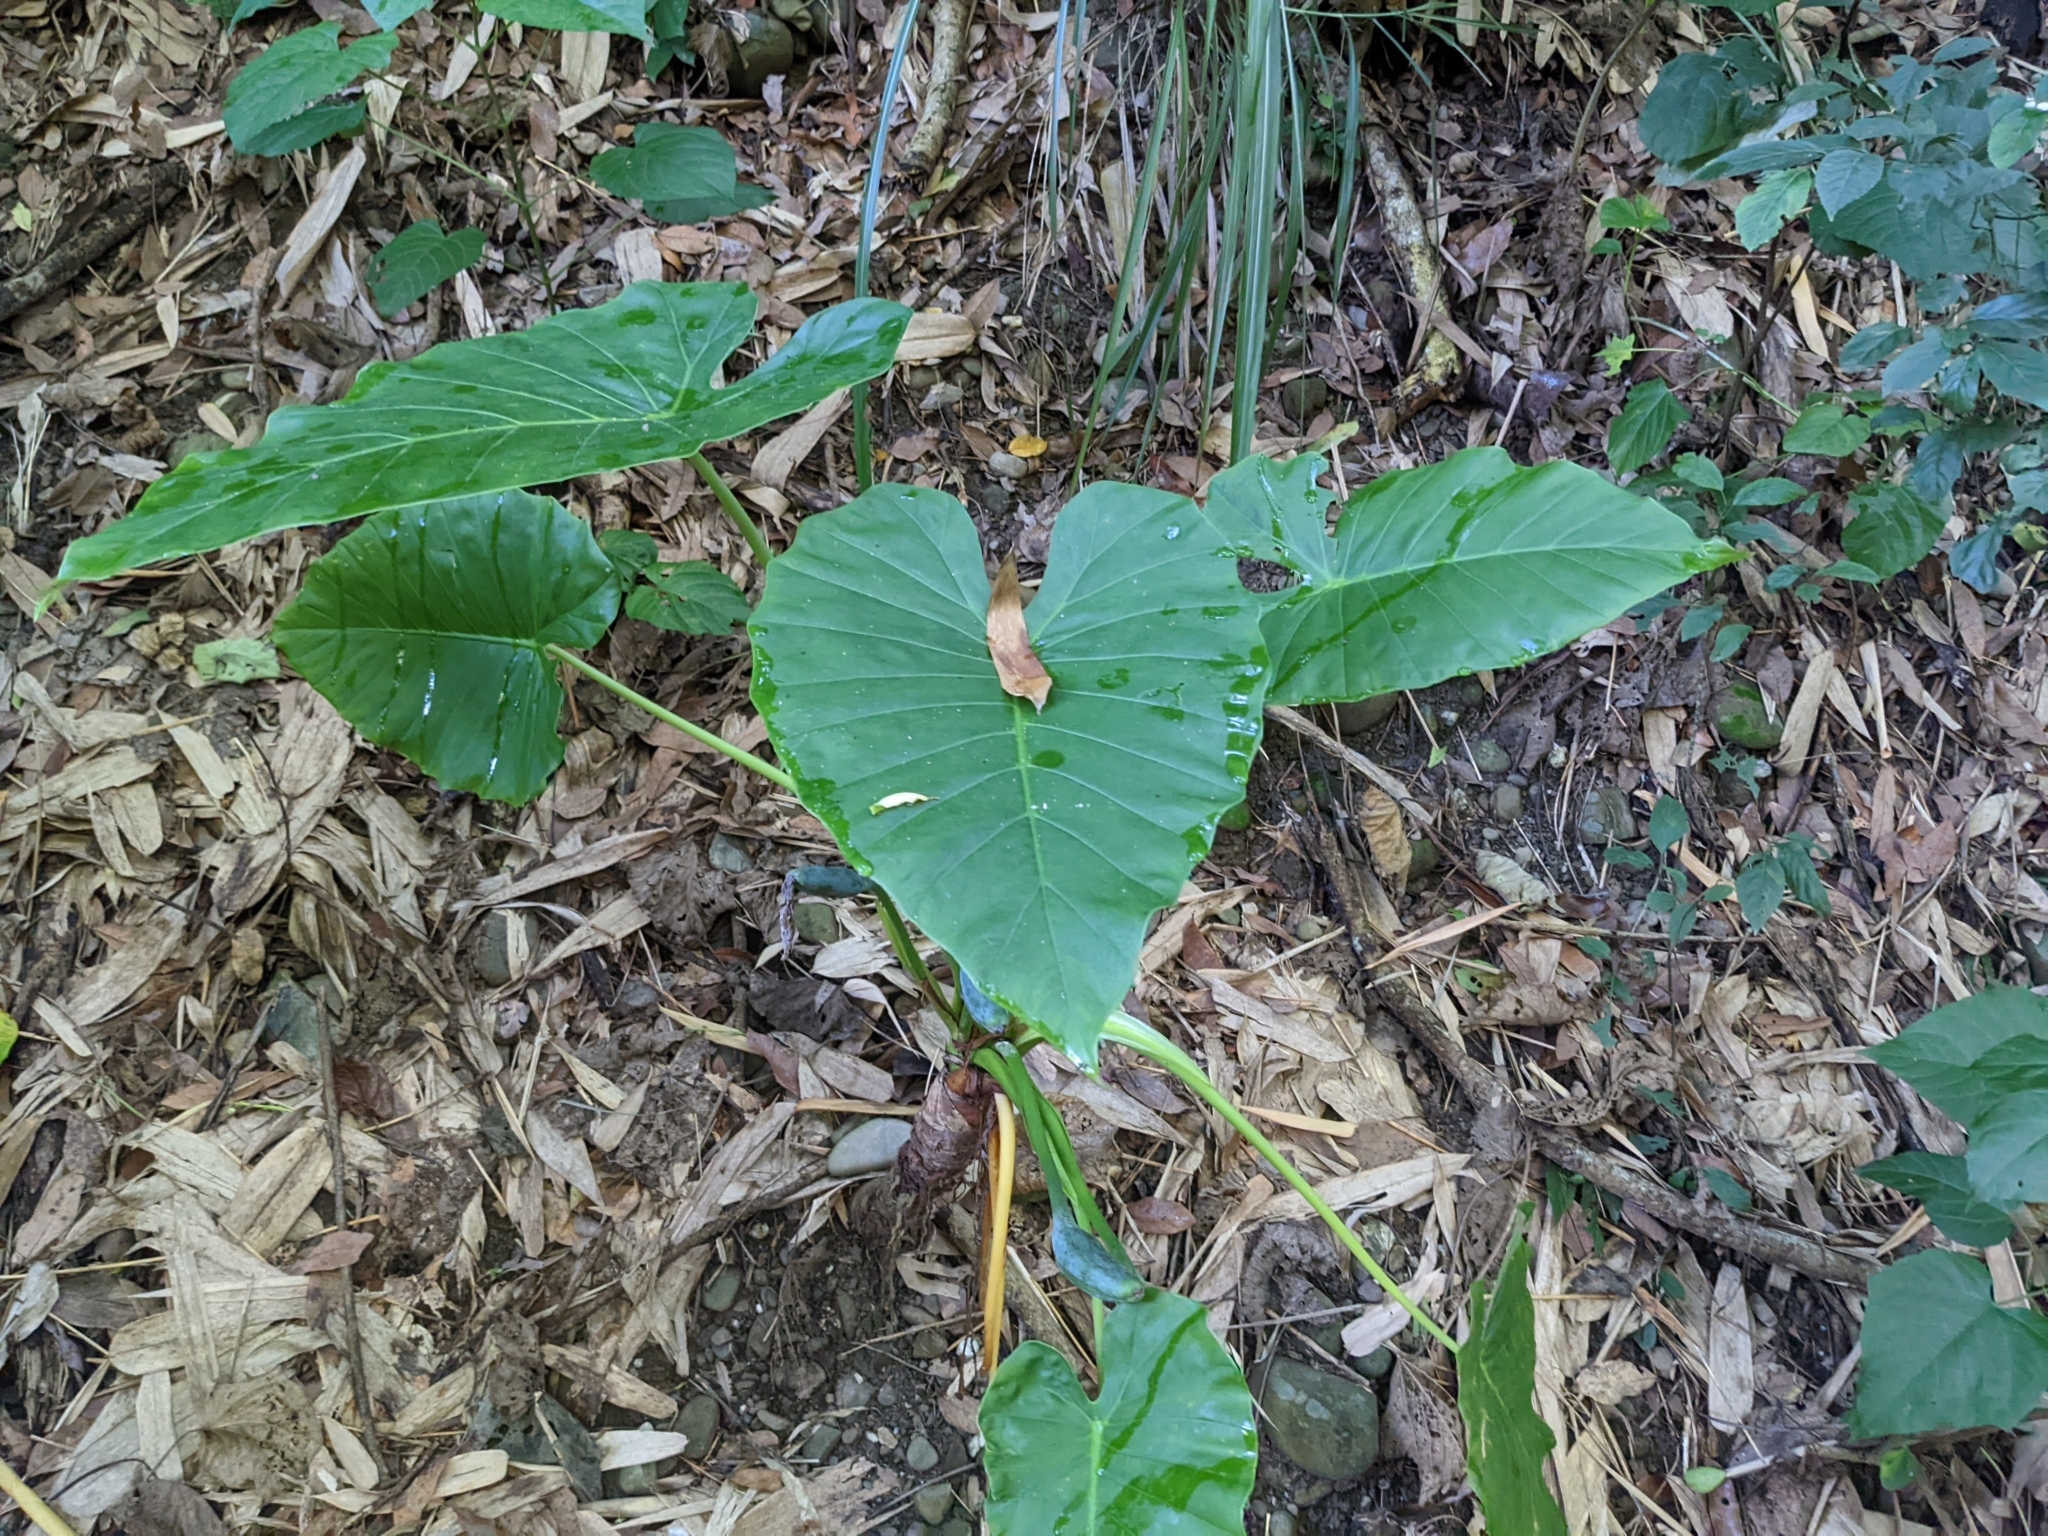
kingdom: Plantae
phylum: Tracheophyta
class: Liliopsida
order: Alismatales
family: Araceae
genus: Alocasia
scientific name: Alocasia odora
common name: Asian taro
